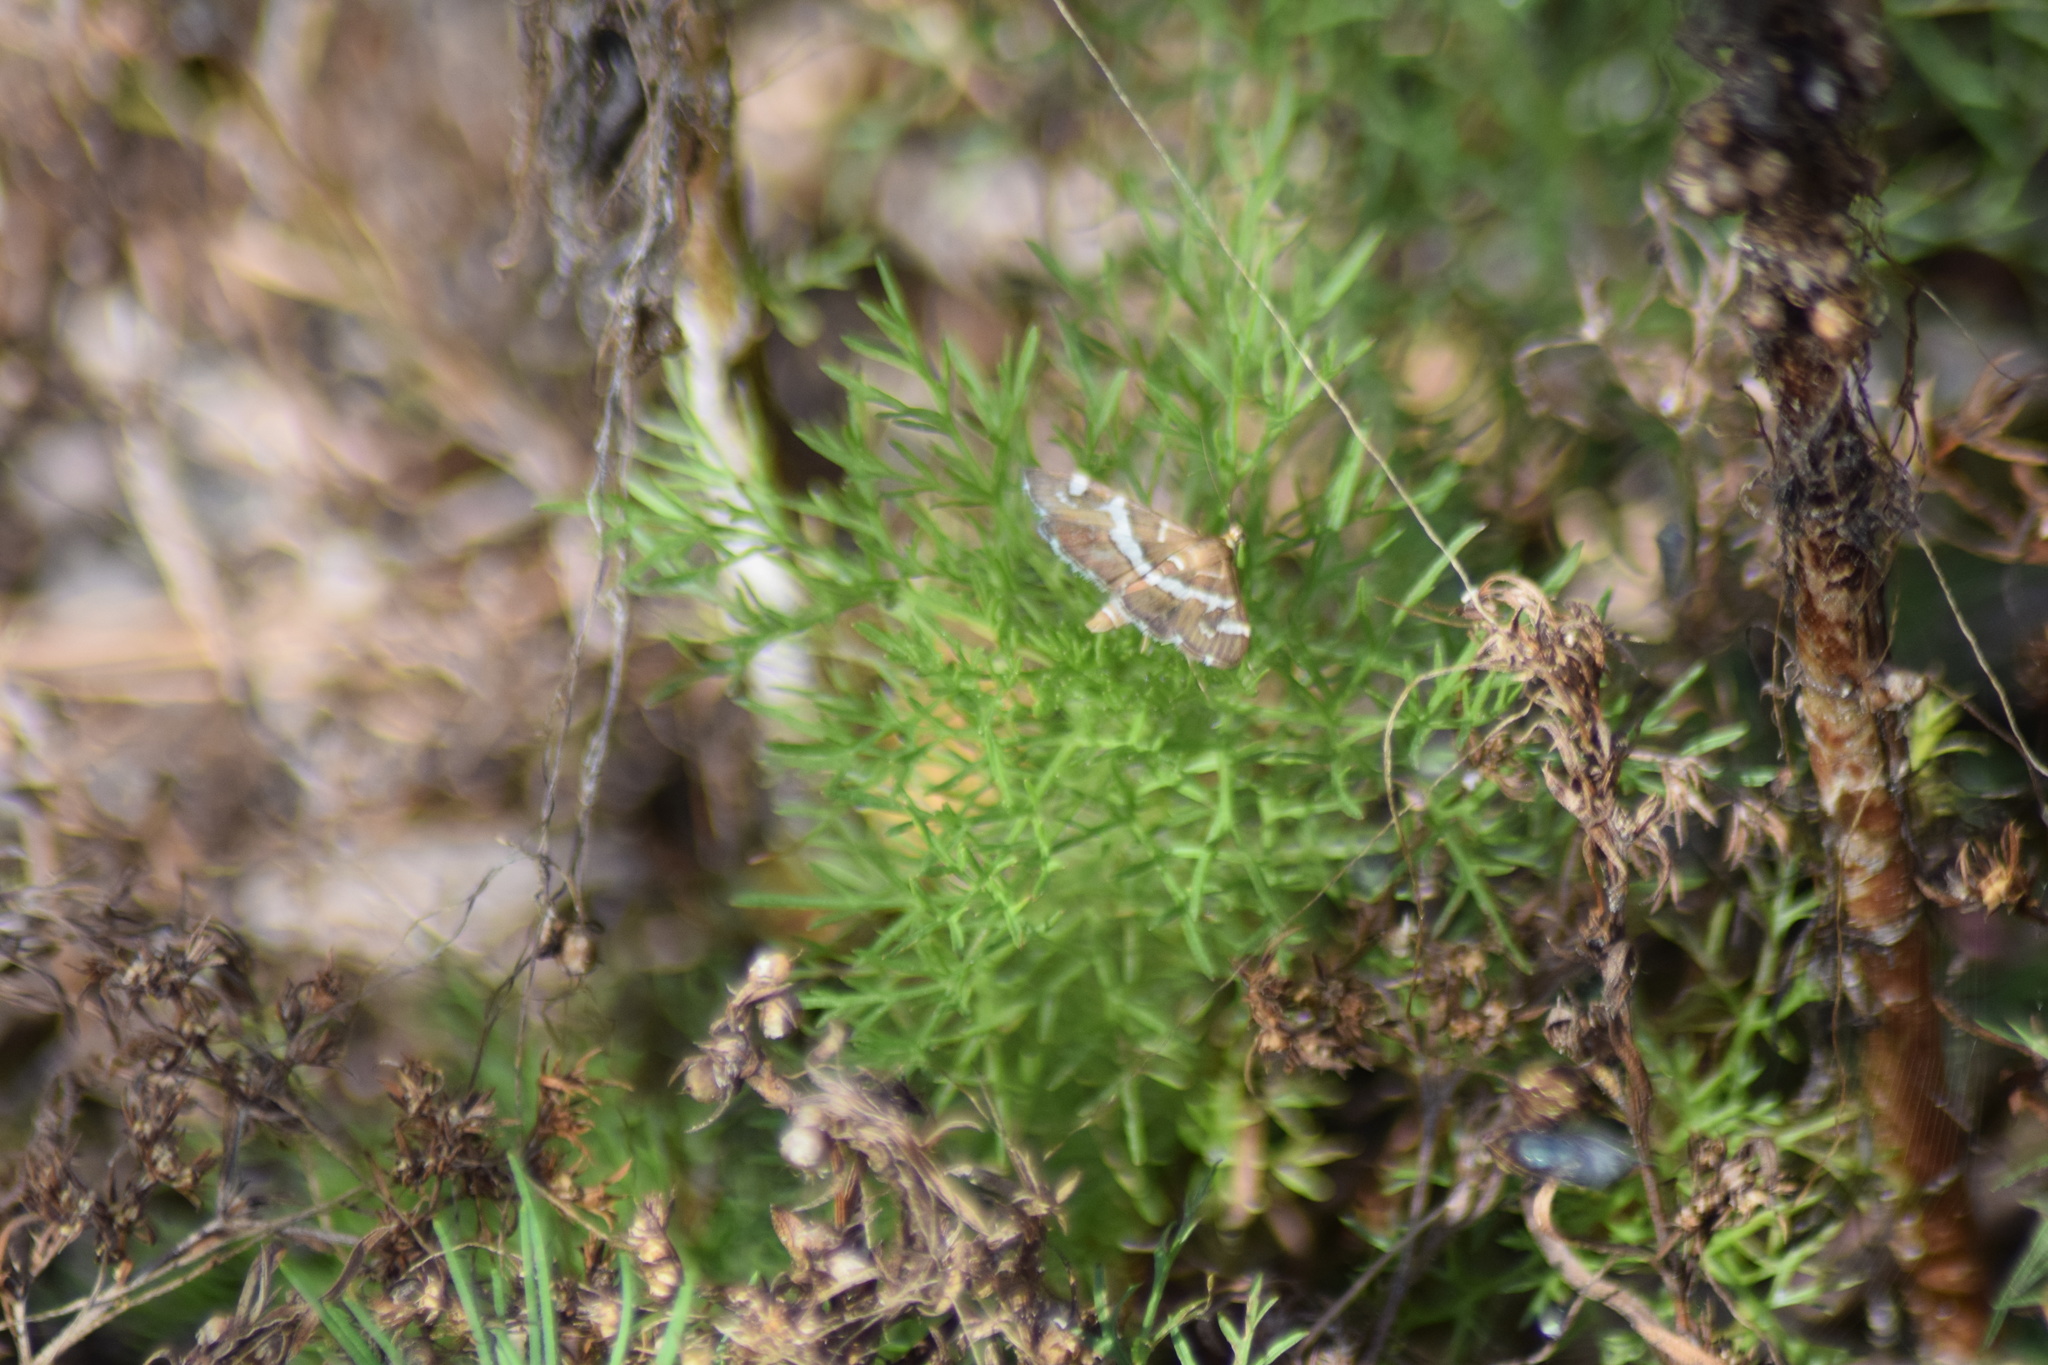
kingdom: Animalia
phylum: Arthropoda
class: Insecta
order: Lepidoptera
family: Crambidae
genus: Spoladea
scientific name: Spoladea recurvalis
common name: Beet webworm moth
